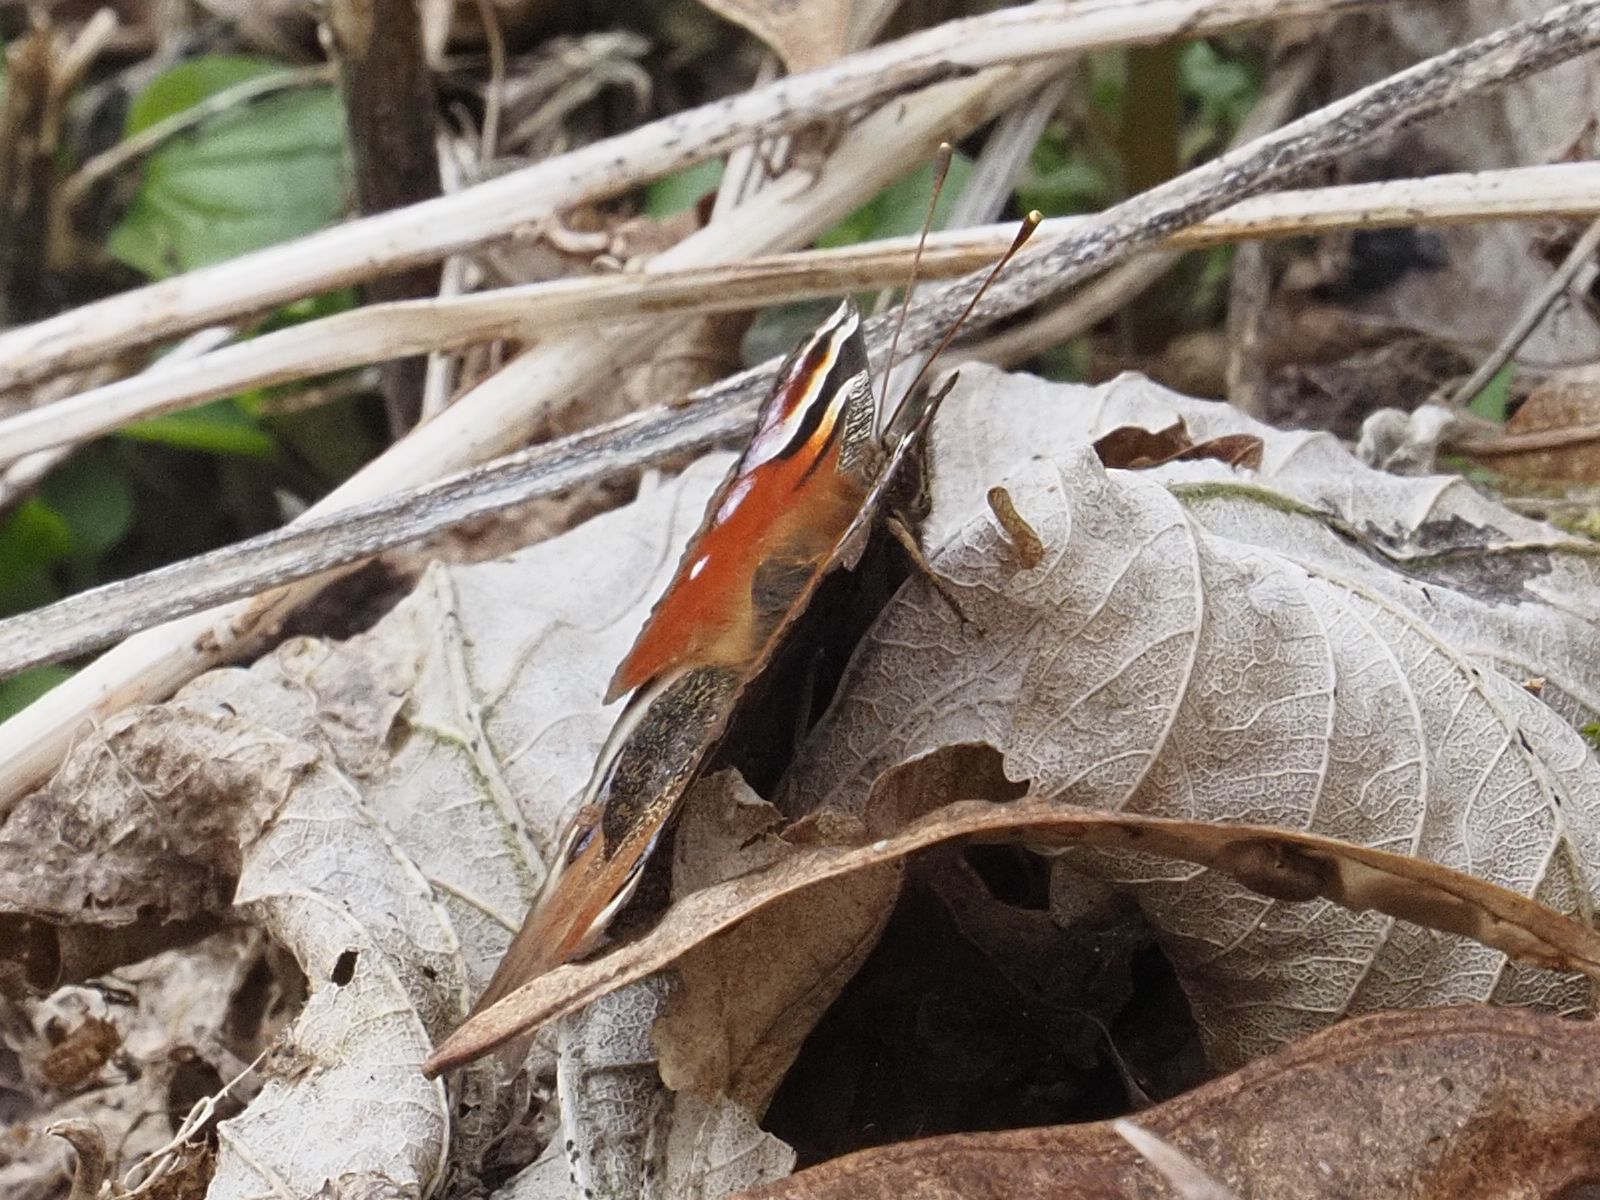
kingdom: Animalia
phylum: Arthropoda
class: Insecta
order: Lepidoptera
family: Nymphalidae
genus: Aglais
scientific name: Aglais io
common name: Peacock
